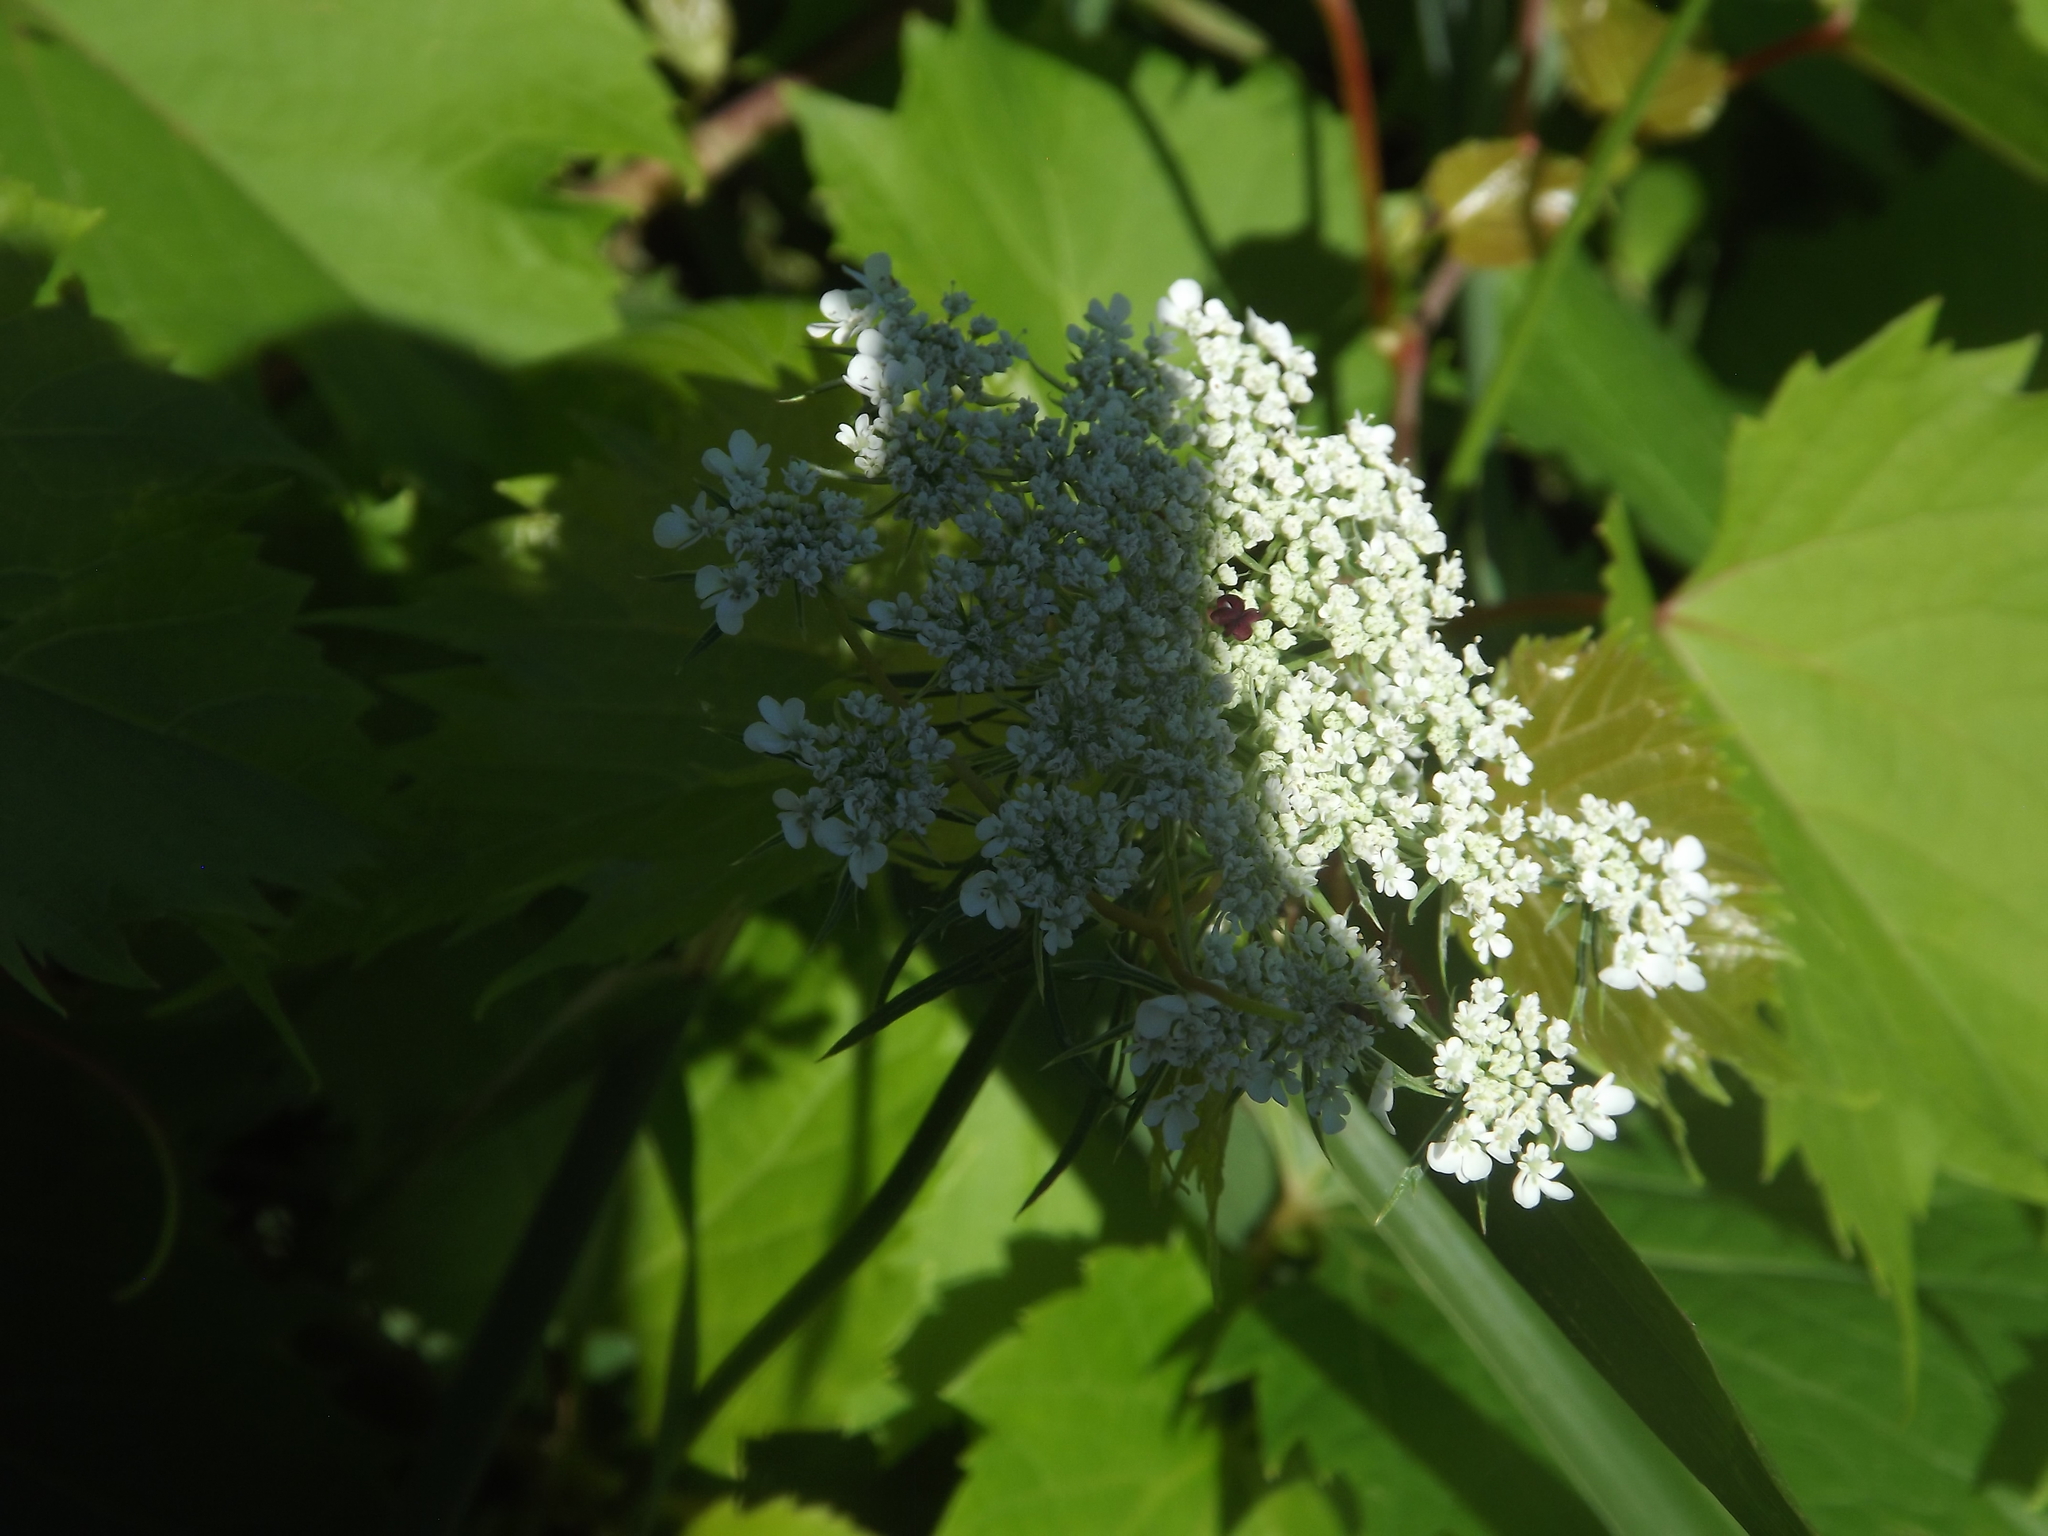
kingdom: Plantae
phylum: Tracheophyta
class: Magnoliopsida
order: Apiales
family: Apiaceae
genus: Daucus
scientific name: Daucus carota
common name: Wild carrot
